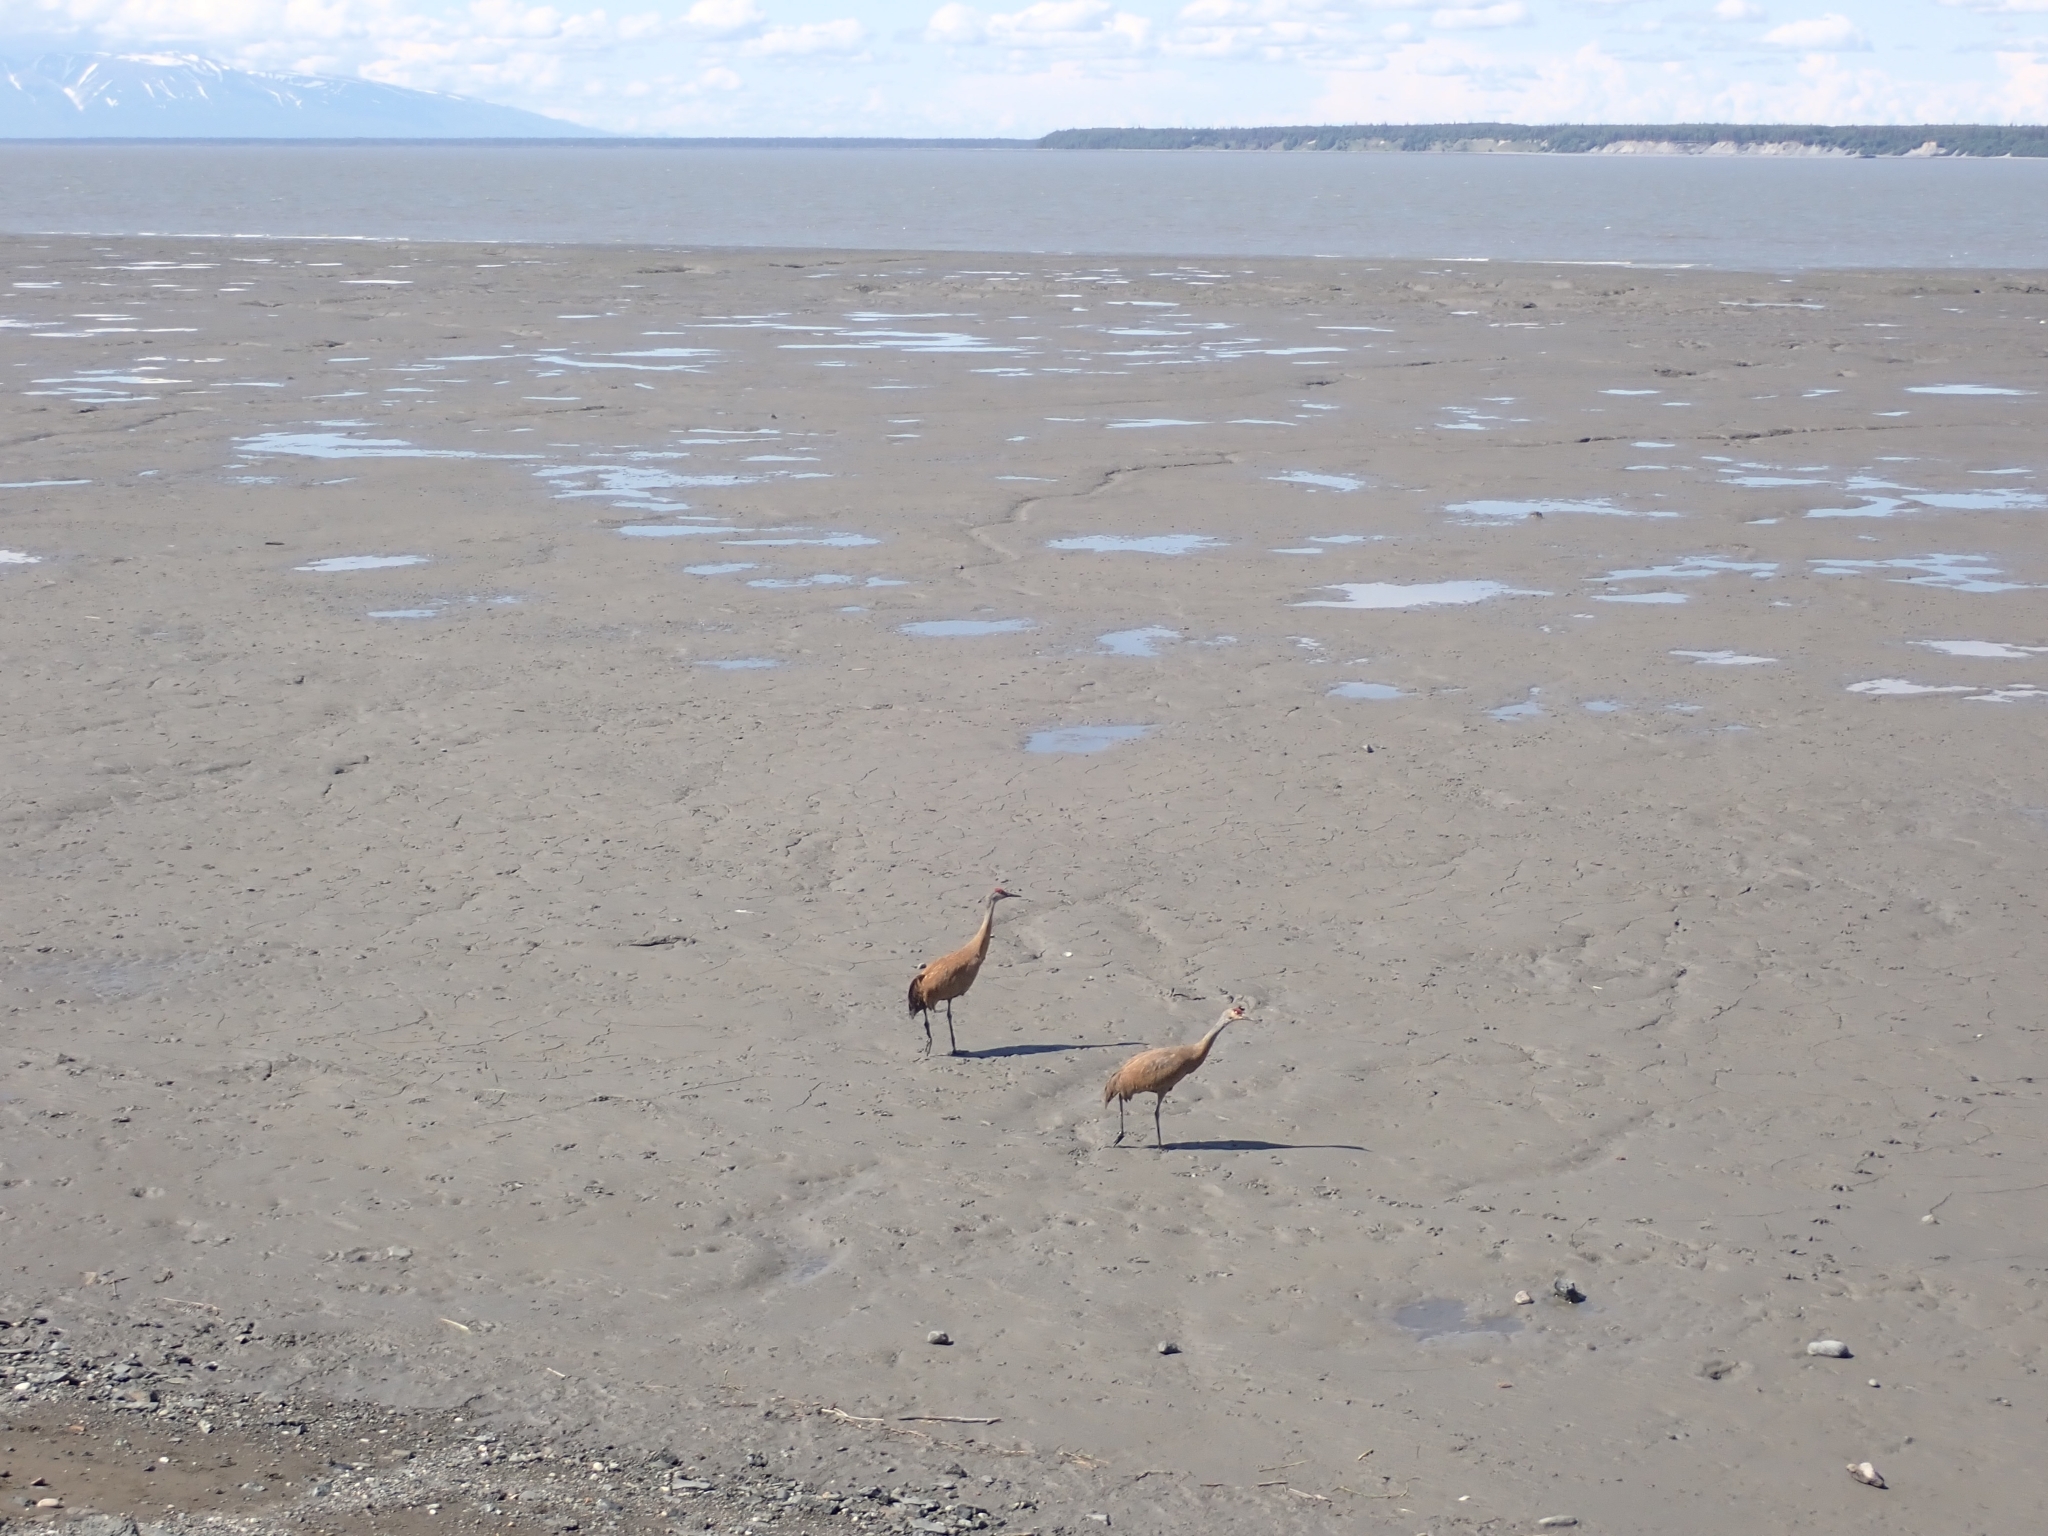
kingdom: Animalia
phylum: Chordata
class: Aves
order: Gruiformes
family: Gruidae
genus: Grus
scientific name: Grus canadensis
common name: Sandhill crane
